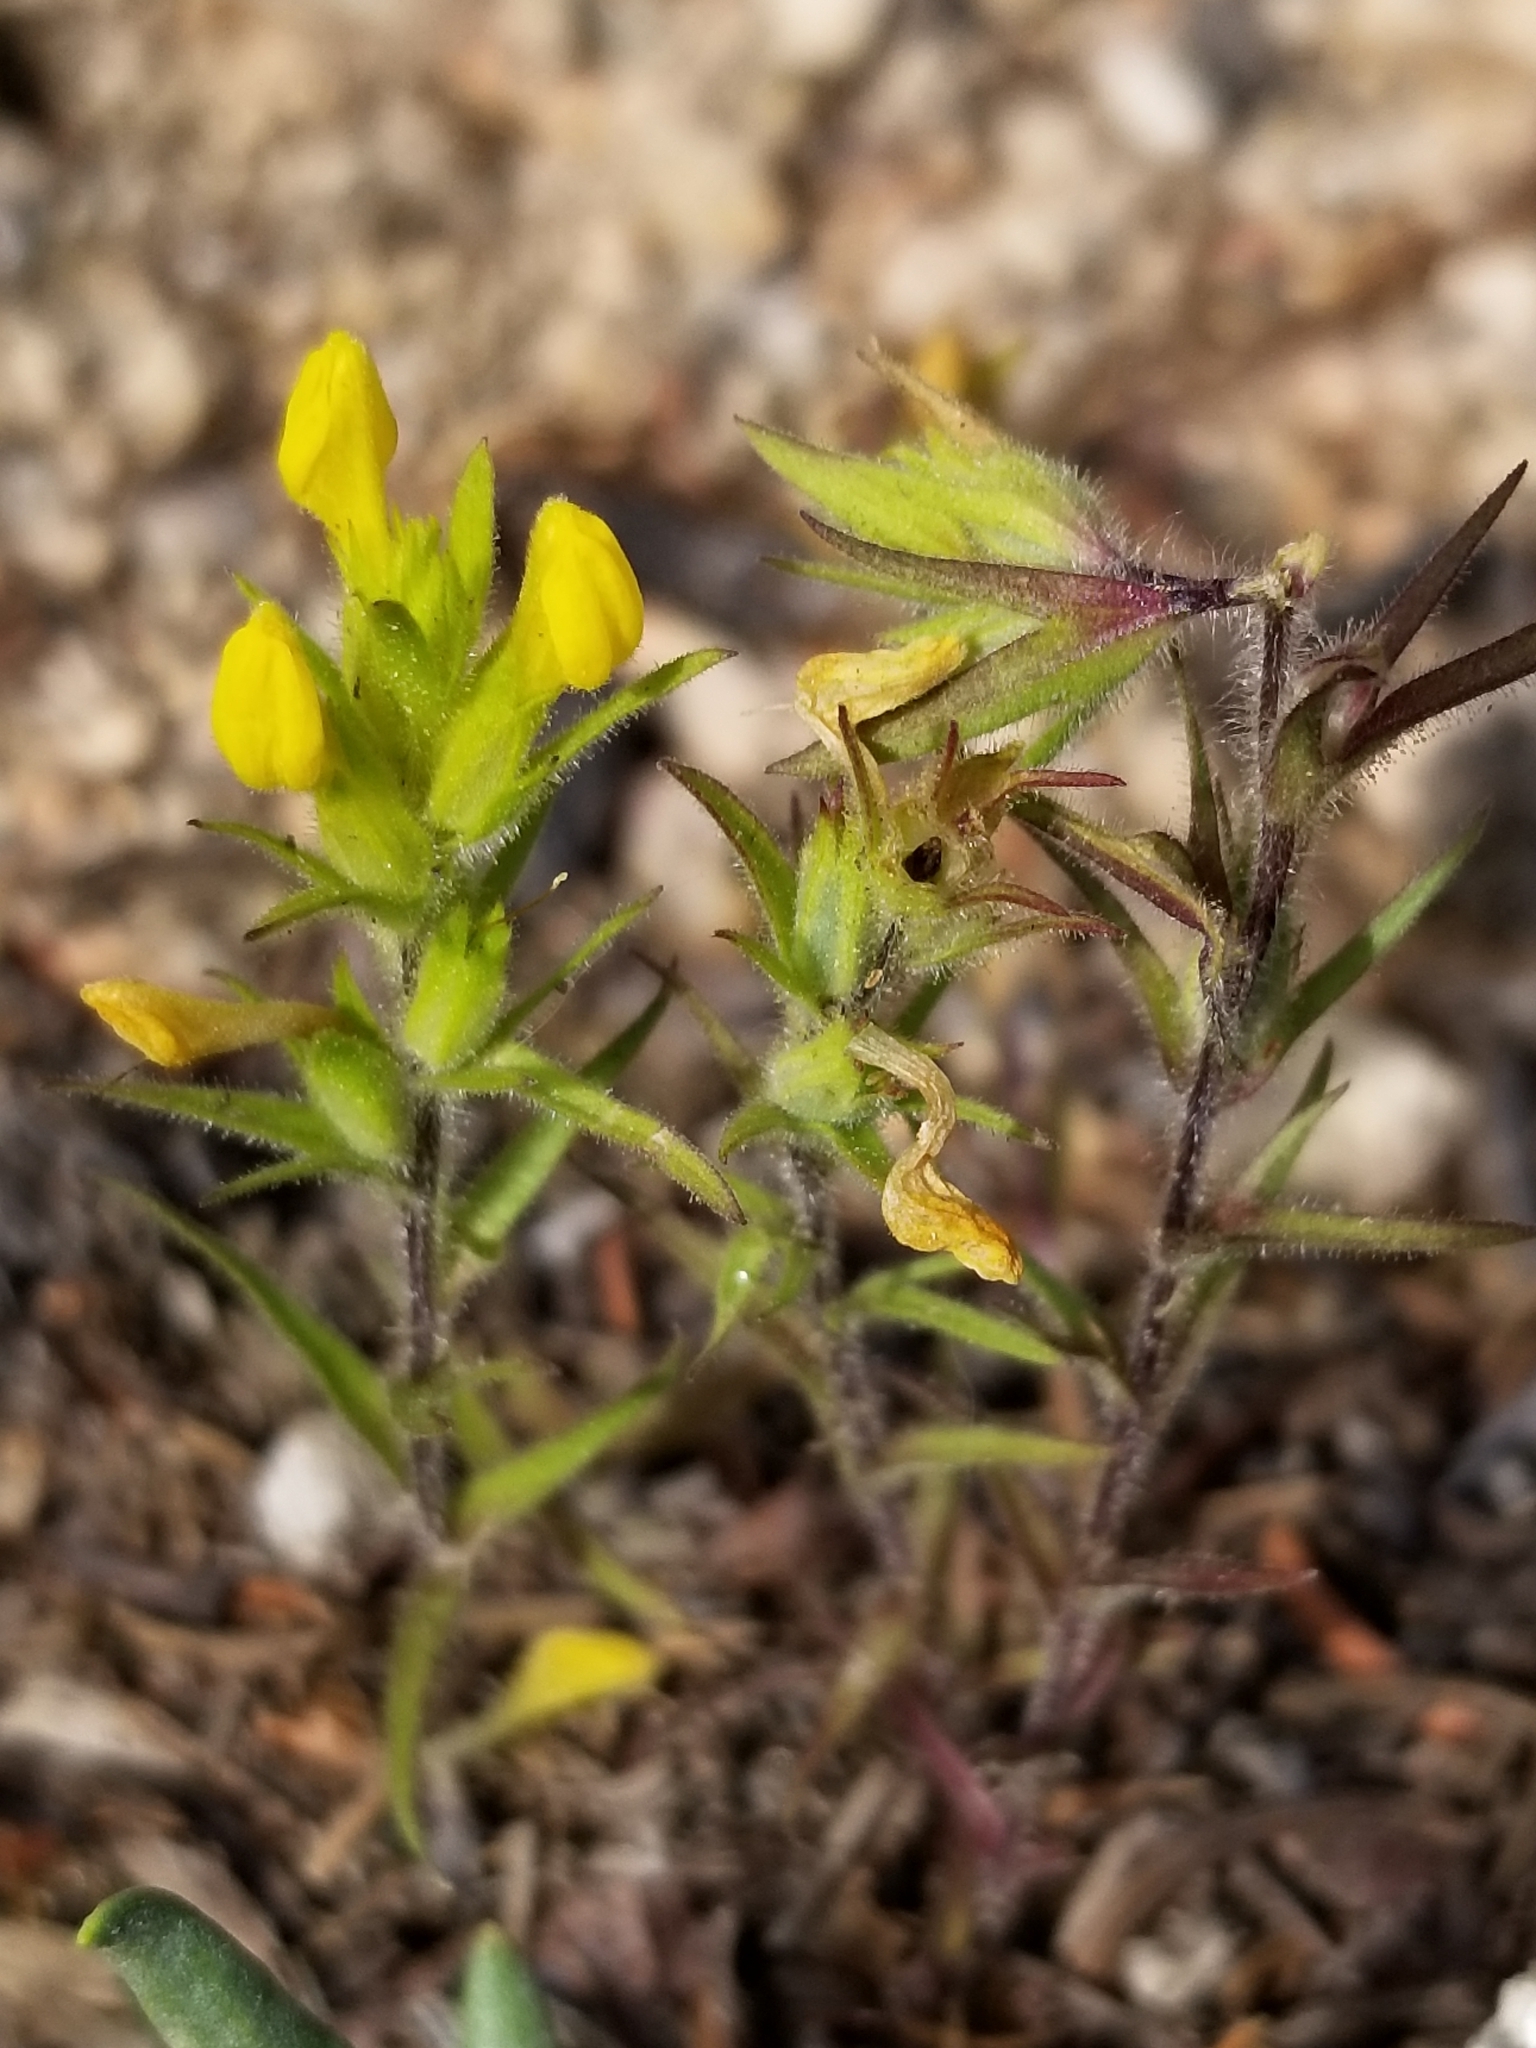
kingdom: Plantae
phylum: Tracheophyta
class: Magnoliopsida
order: Lamiales
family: Orobanchaceae
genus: Orthocarpus
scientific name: Orthocarpus luteus
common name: Golden-tongue owl's-clover
